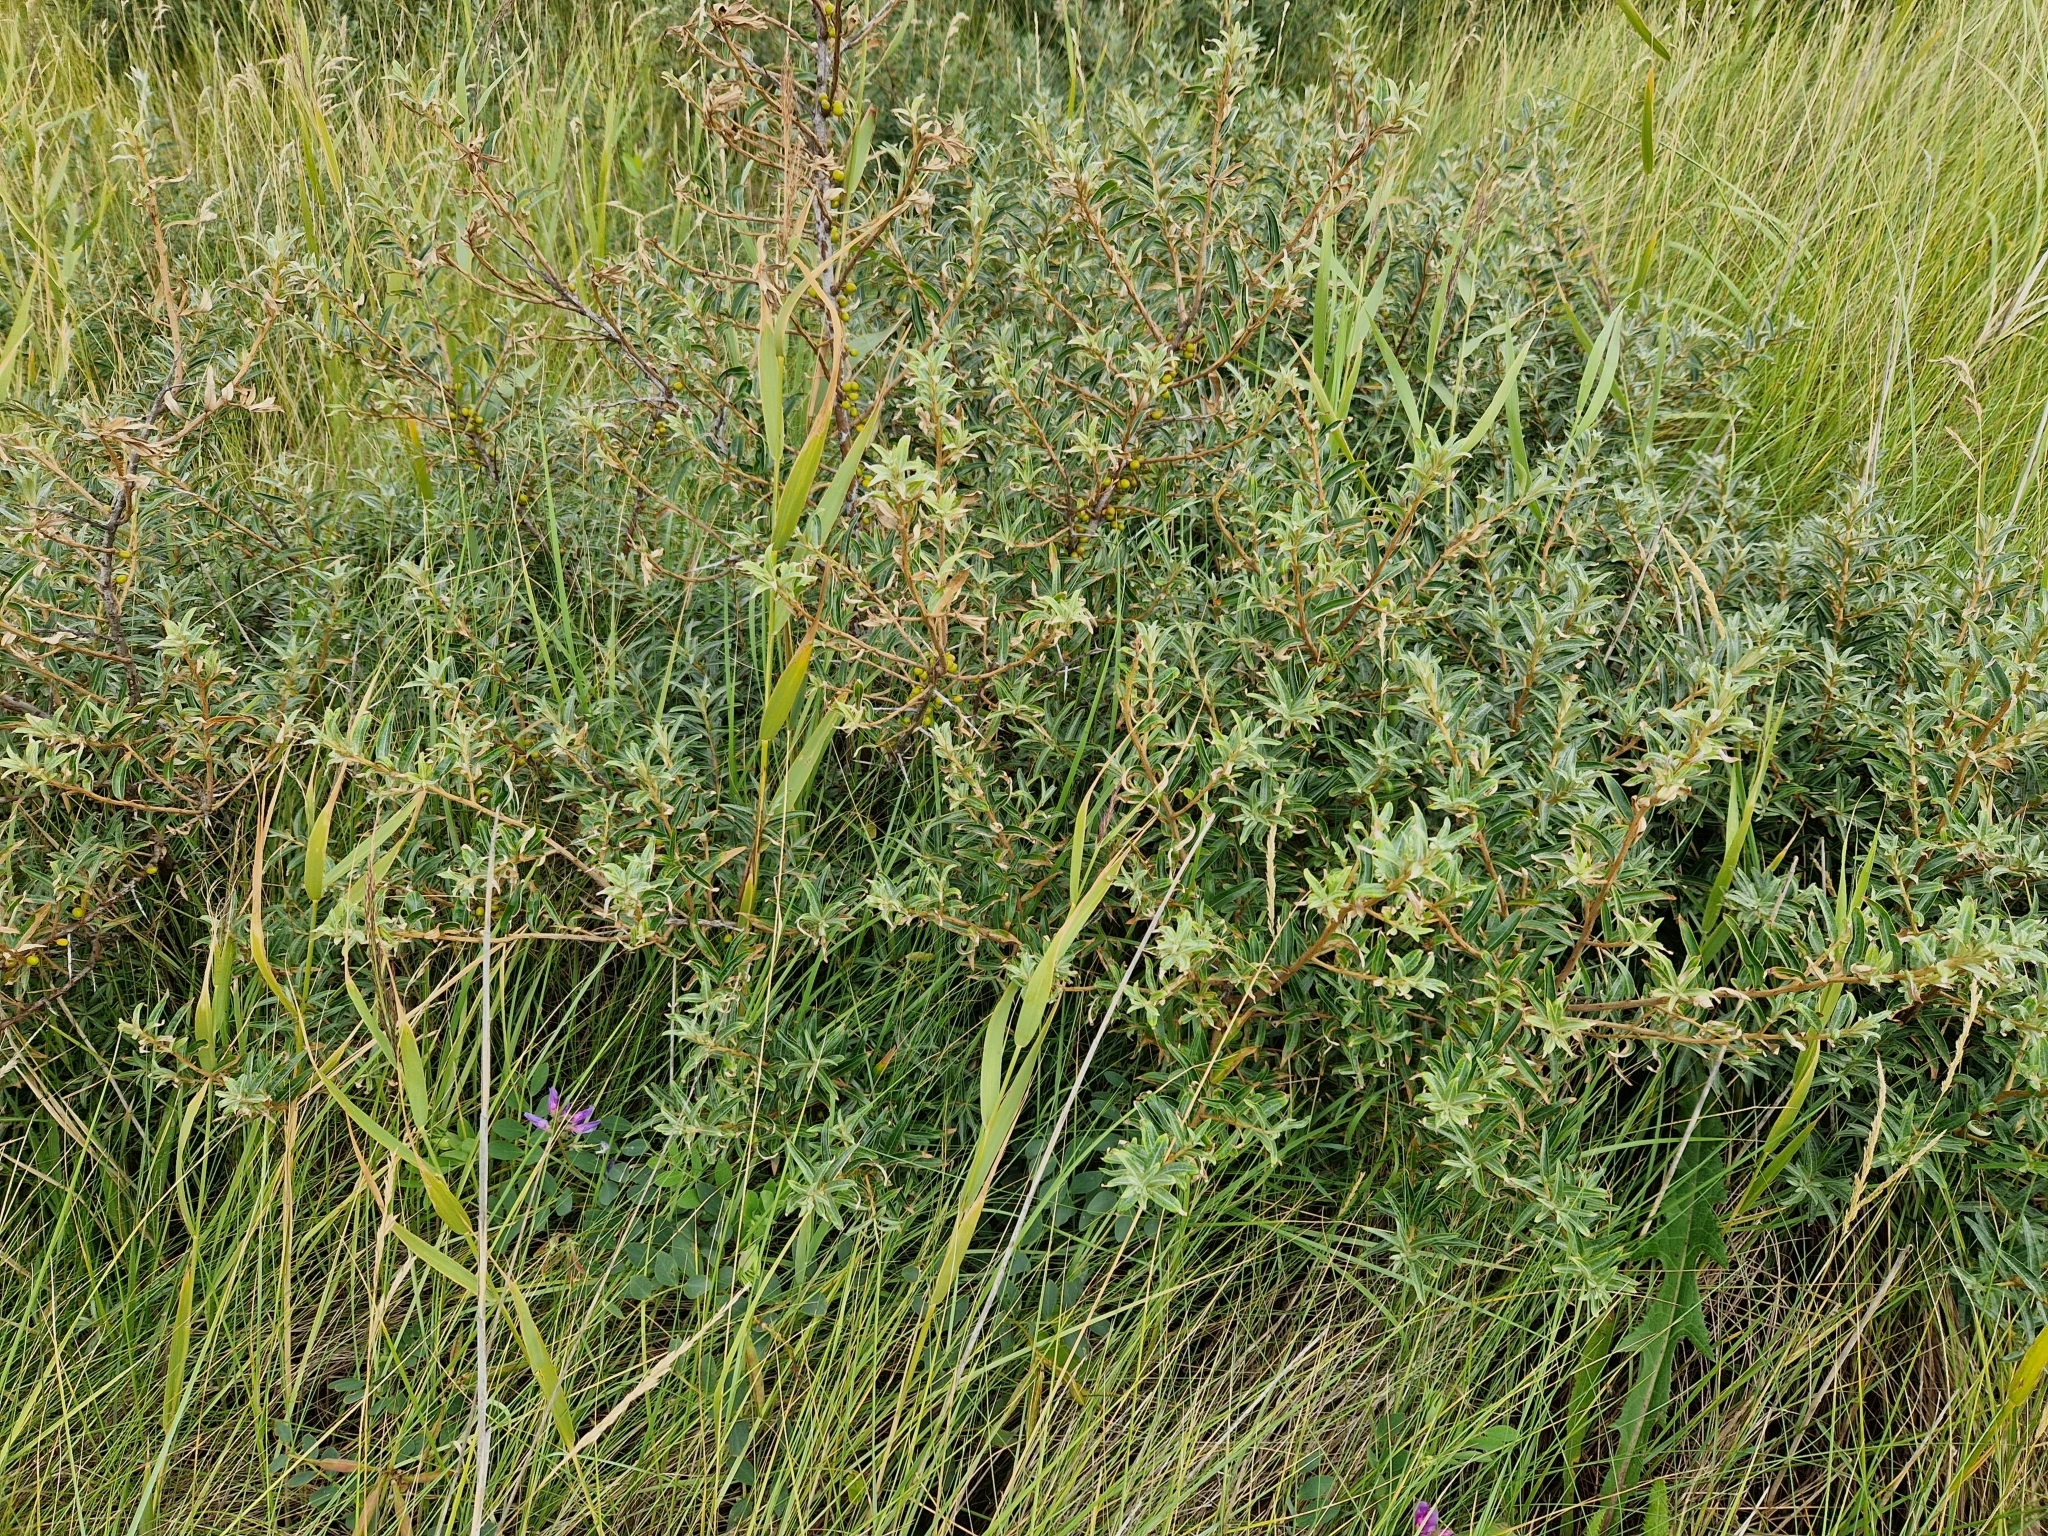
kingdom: Plantae
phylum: Tracheophyta
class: Magnoliopsida
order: Rosales
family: Elaeagnaceae
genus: Hippophae
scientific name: Hippophae rhamnoides
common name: Sea-buckthorn
